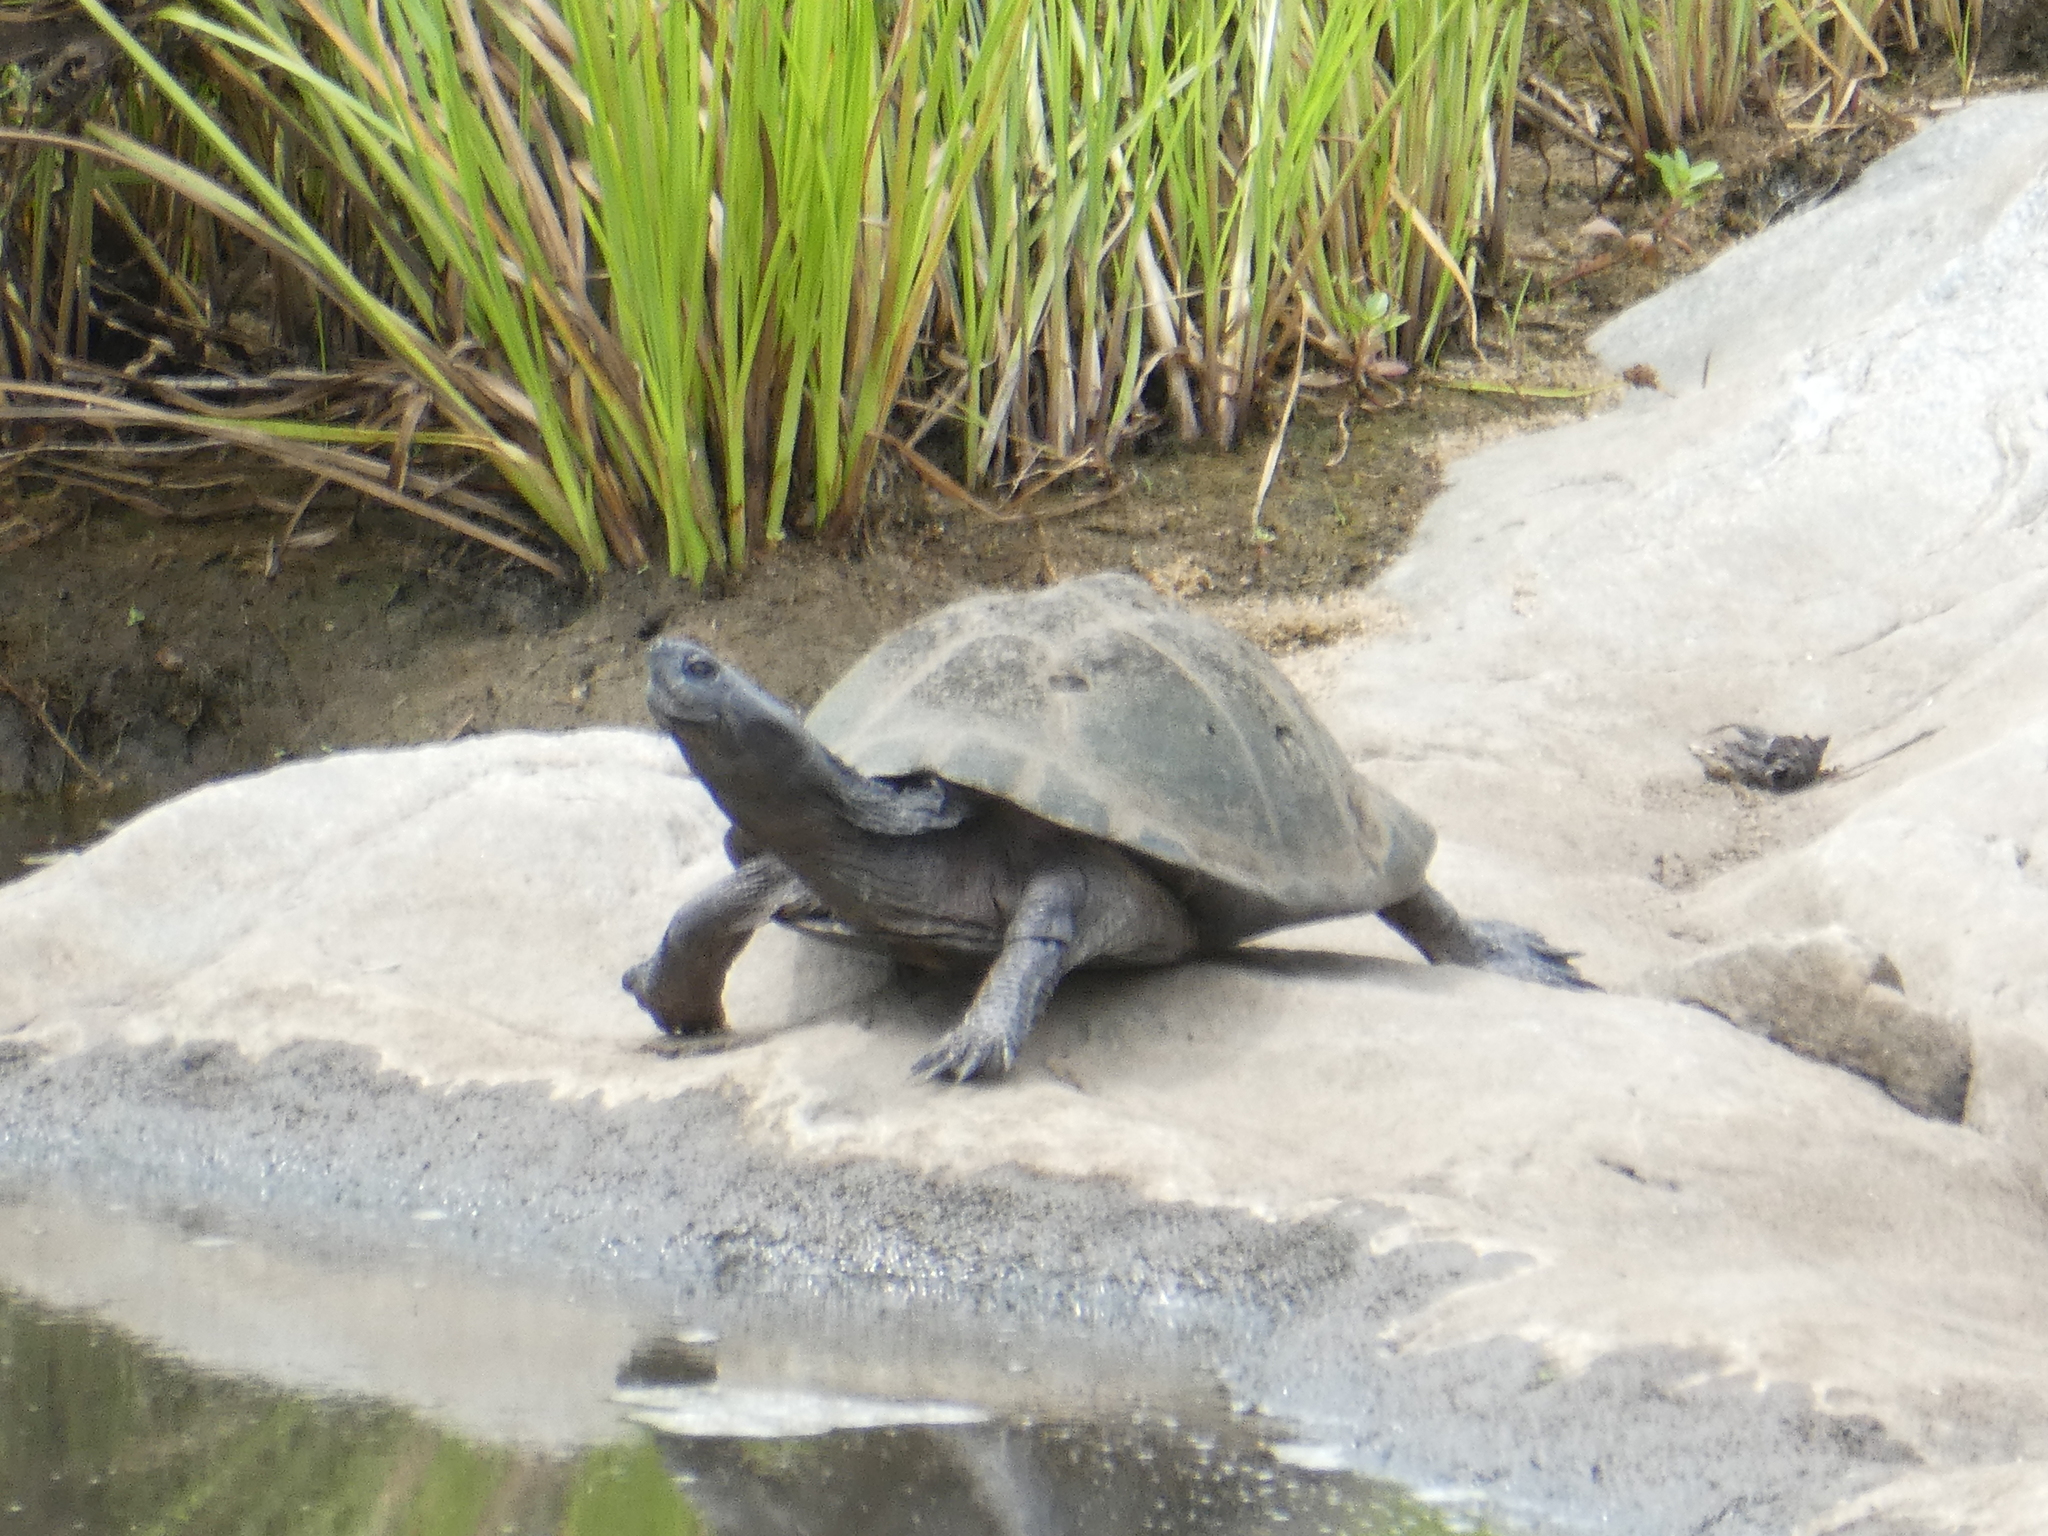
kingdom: Animalia
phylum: Chordata
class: Testudines
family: Pelomedusidae
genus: Pelusios
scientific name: Pelusios sinuatus
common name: Serrated hinged terrapin
